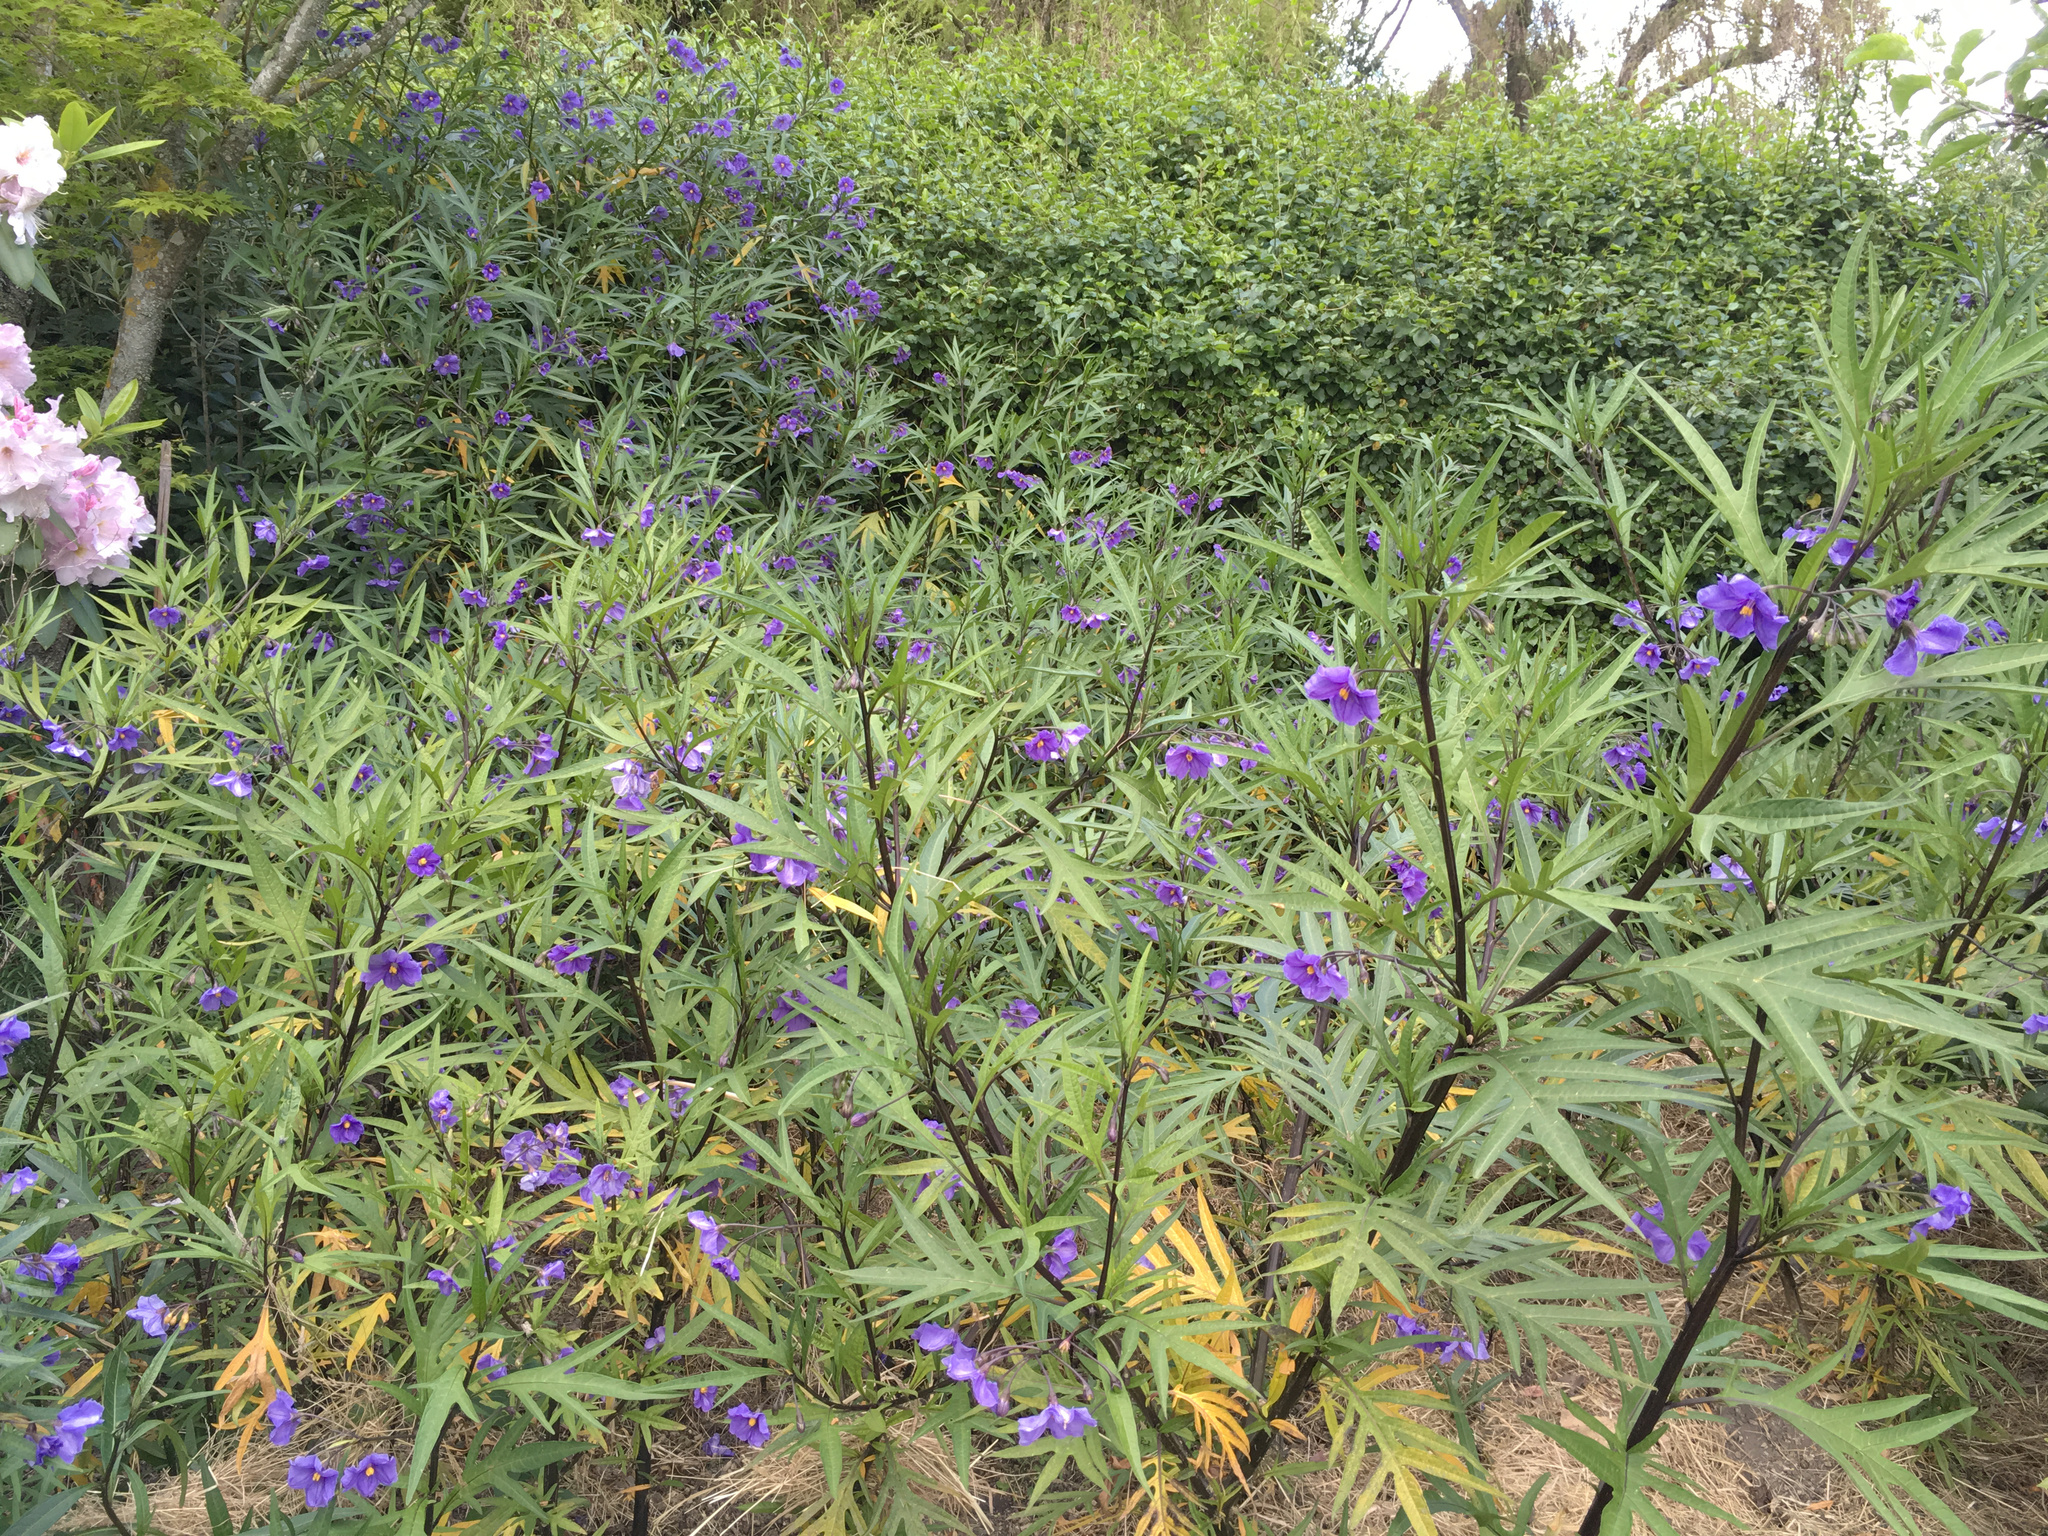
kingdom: Plantae
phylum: Tracheophyta
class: Magnoliopsida
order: Solanales
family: Solanaceae
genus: Solanum
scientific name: Solanum laciniatum
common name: Kangaroo-apple
